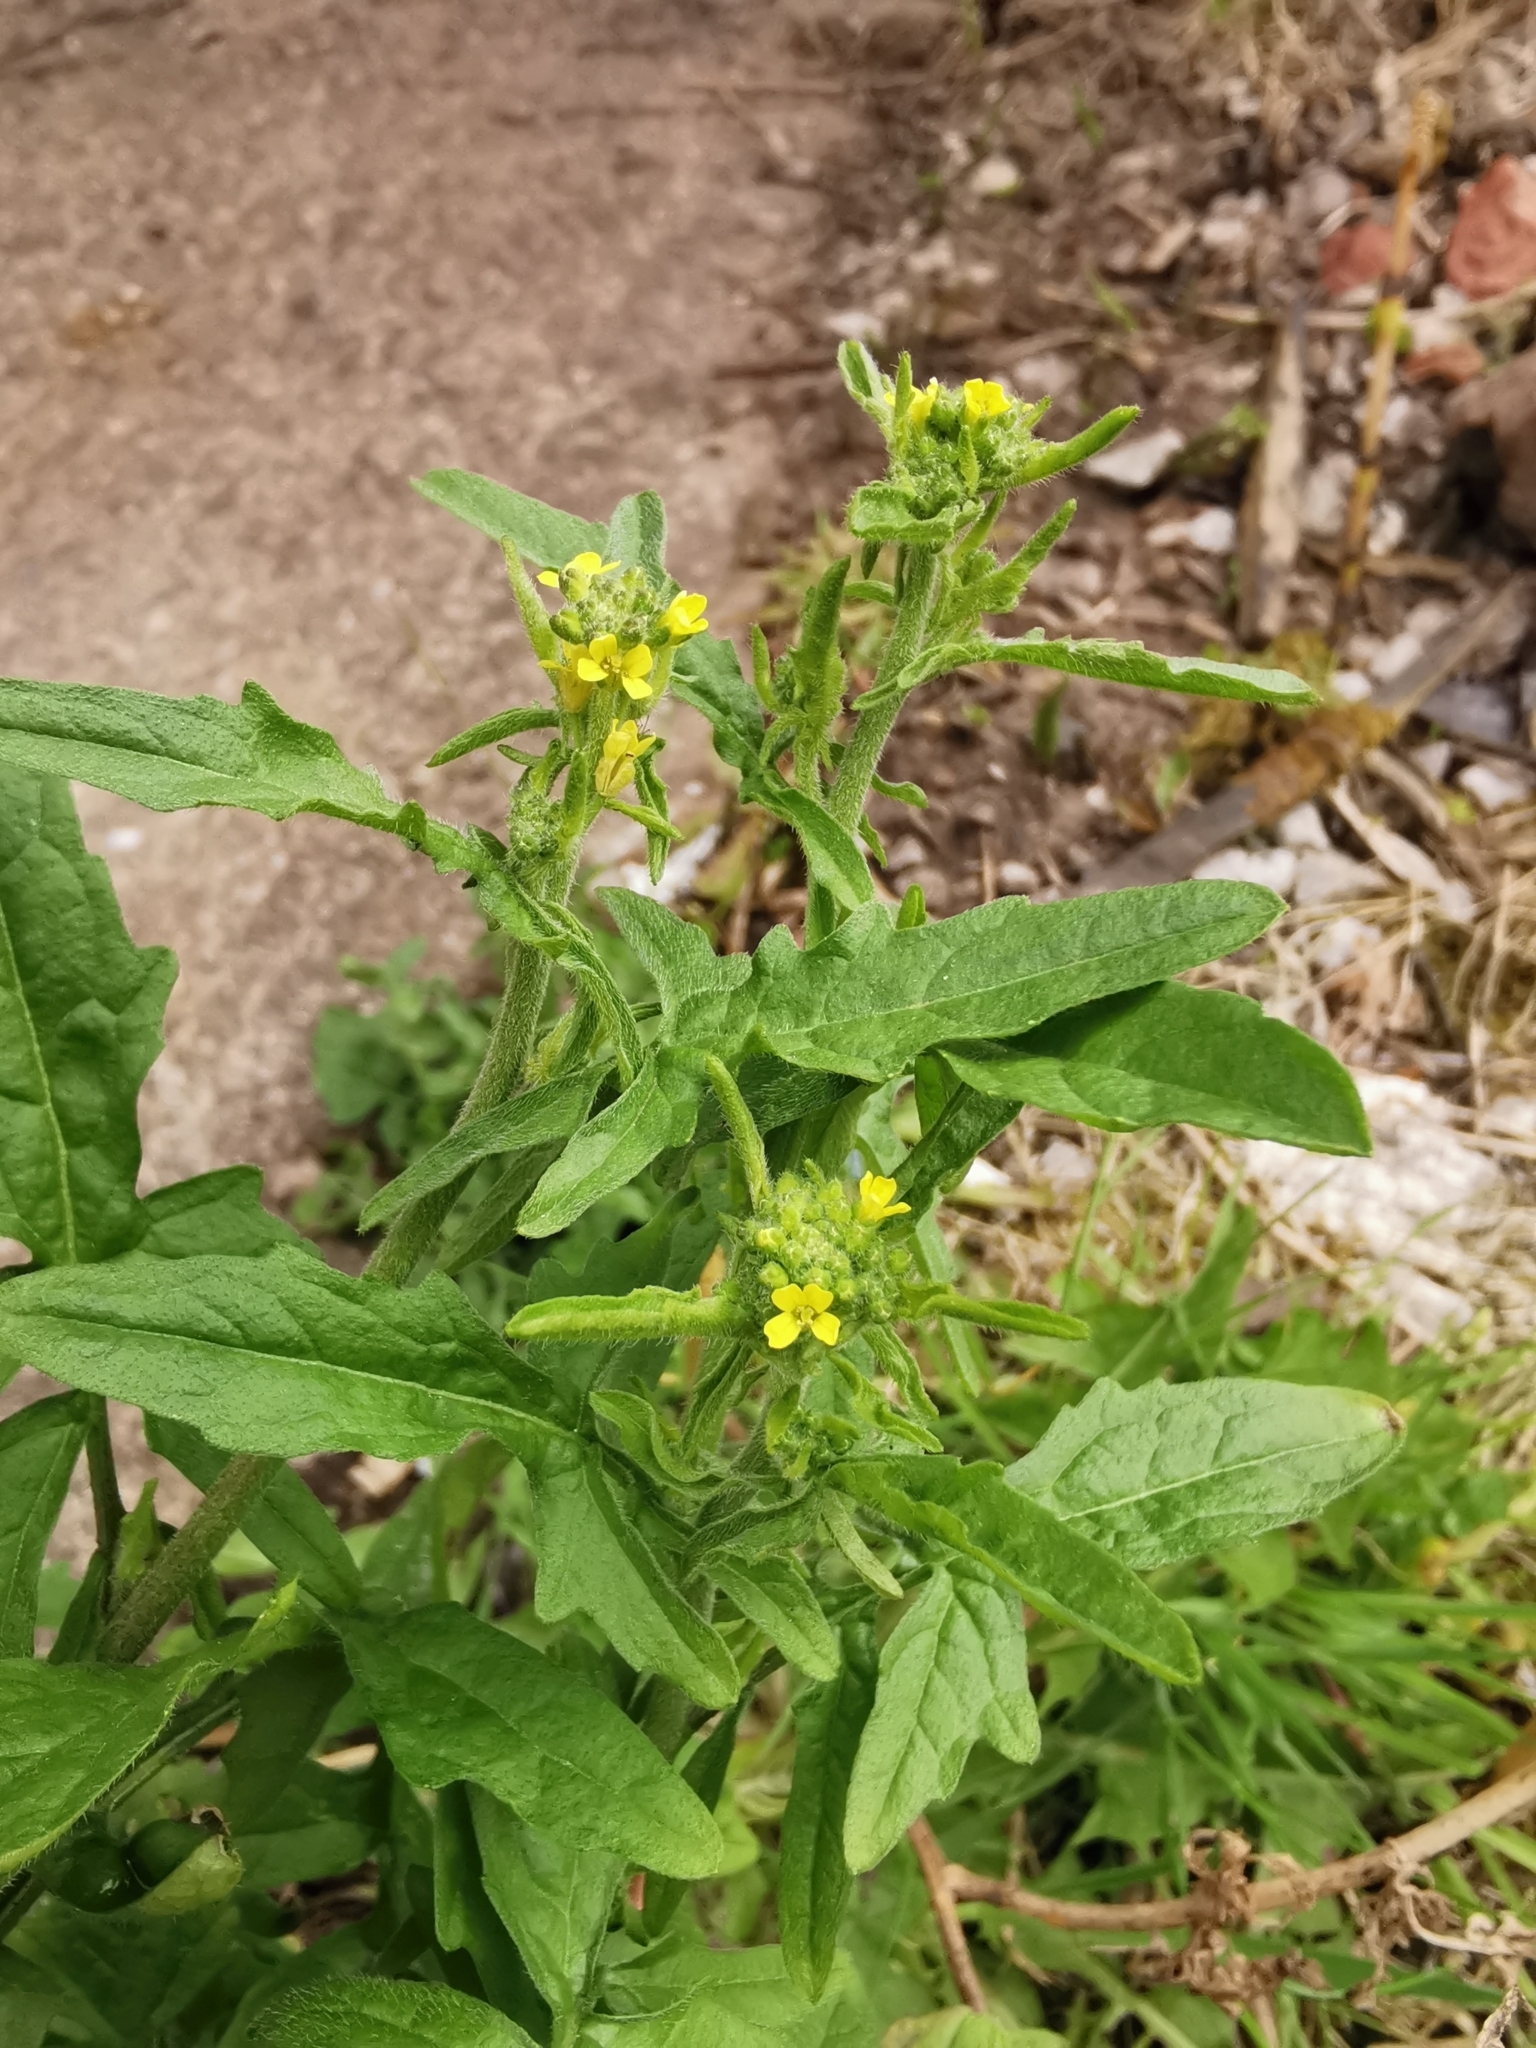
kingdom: Plantae
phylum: Tracheophyta
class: Magnoliopsida
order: Brassicales
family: Brassicaceae
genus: Sisymbrium
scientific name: Sisymbrium officinale
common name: Hedge mustard
